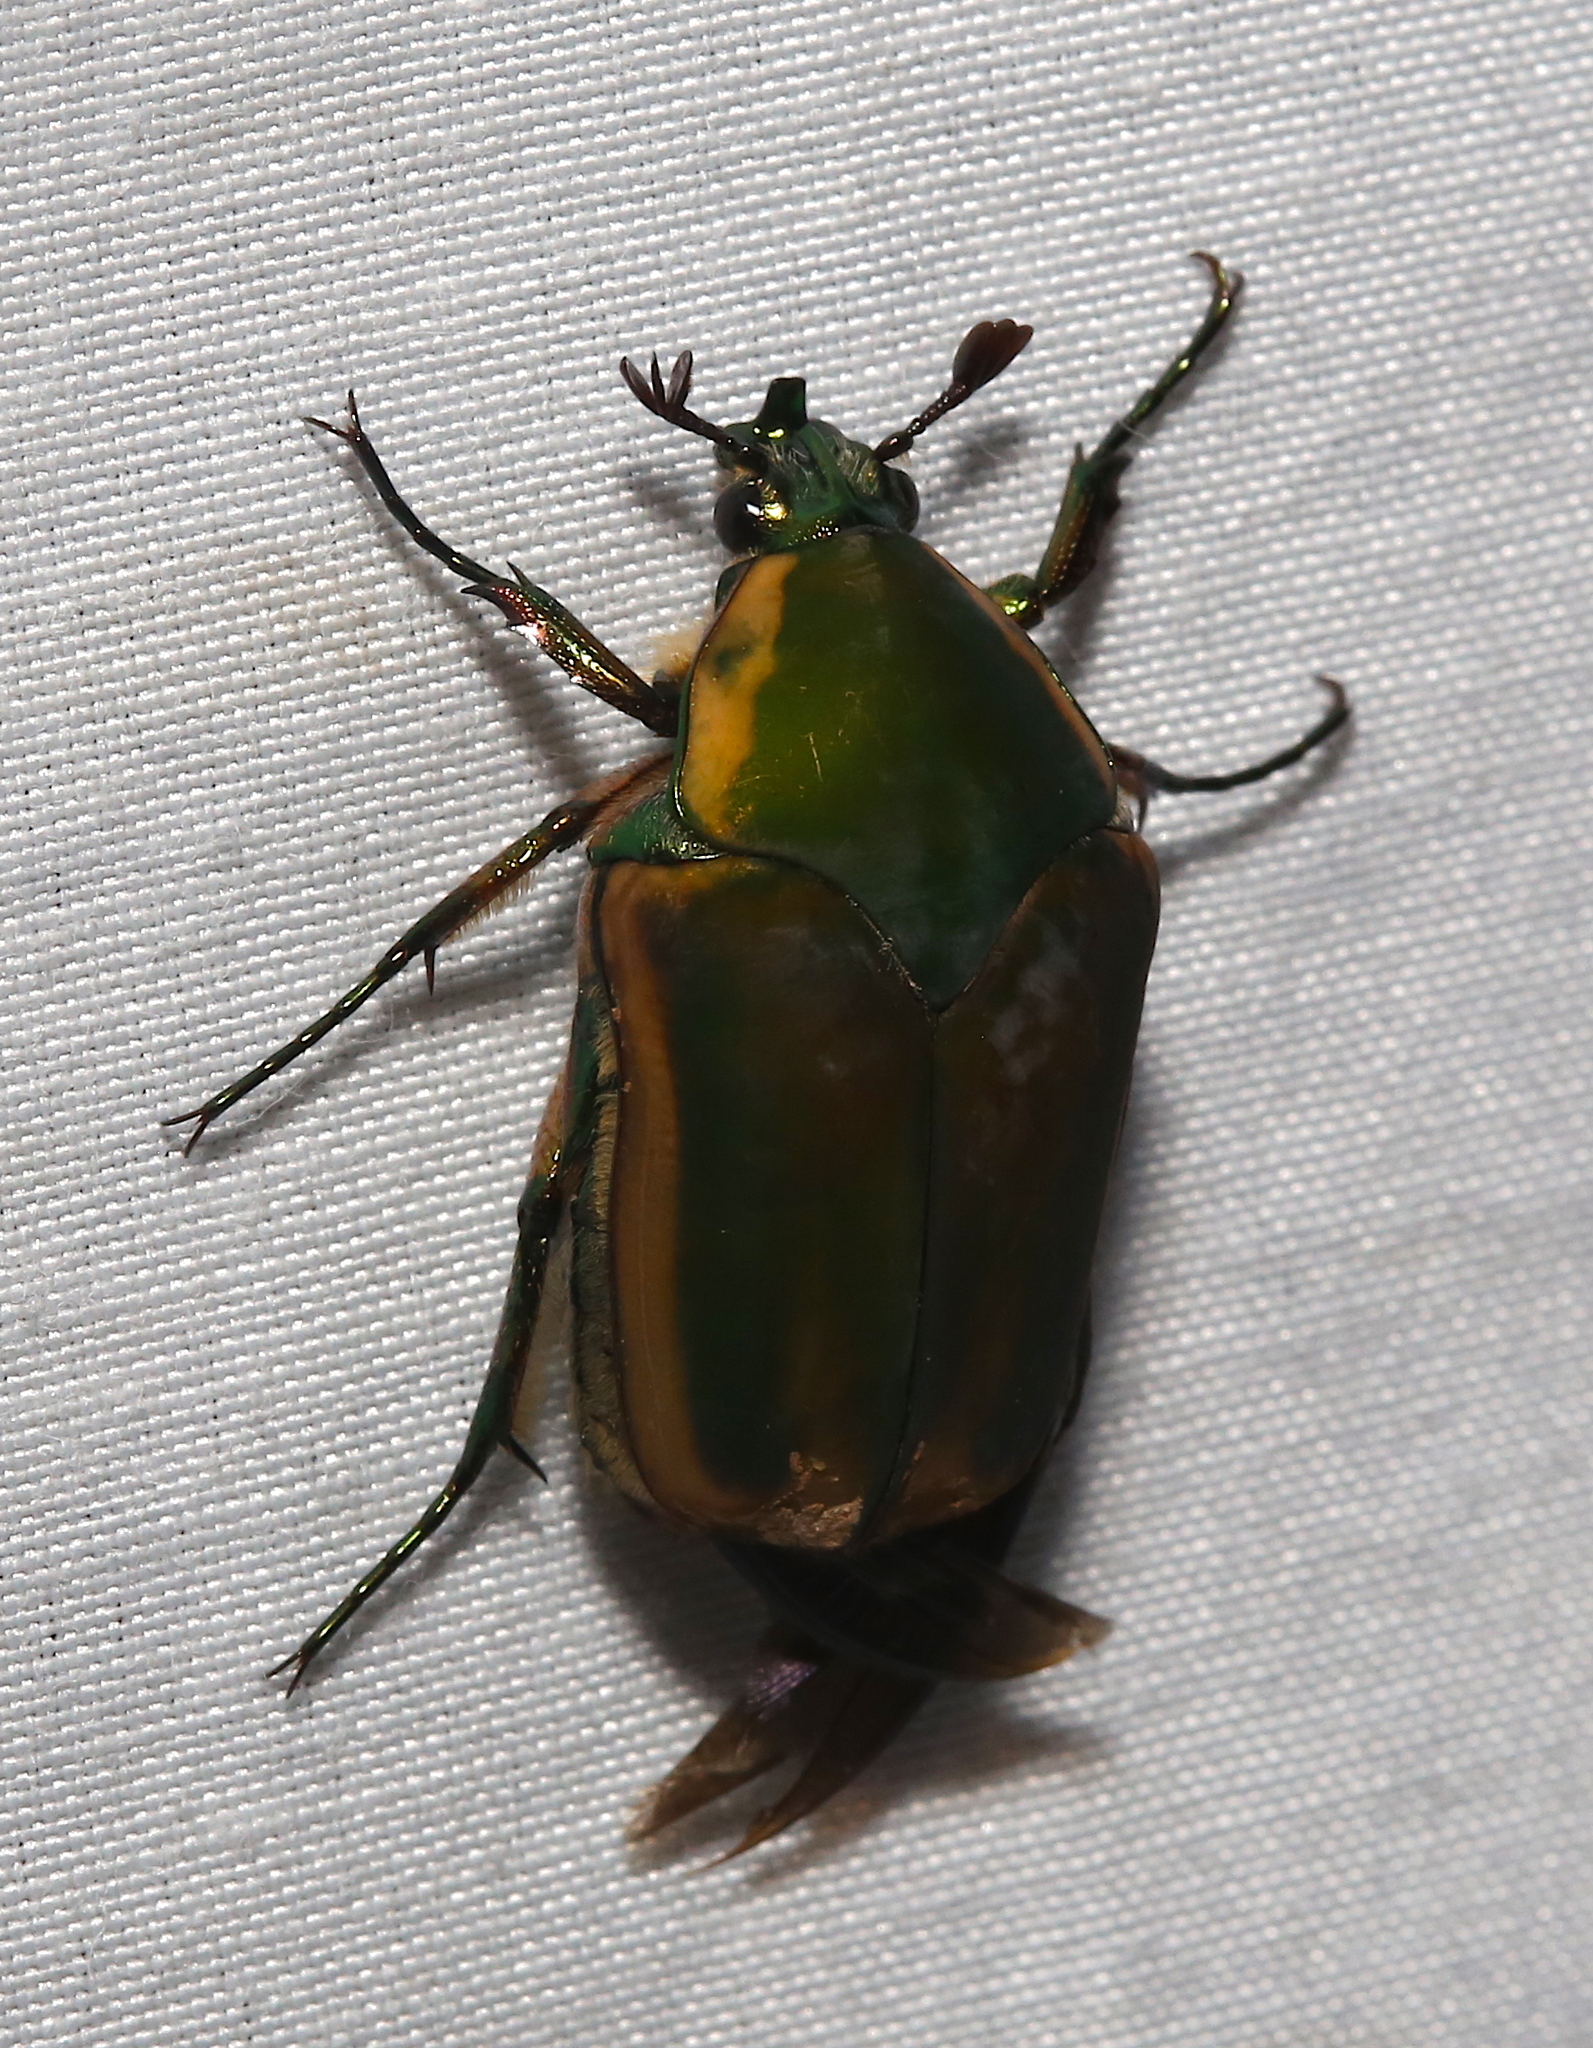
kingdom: Animalia
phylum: Arthropoda
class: Insecta
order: Coleoptera
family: Scarabaeidae
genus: Cotinis
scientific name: Cotinis nitida
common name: Common green june beetle
